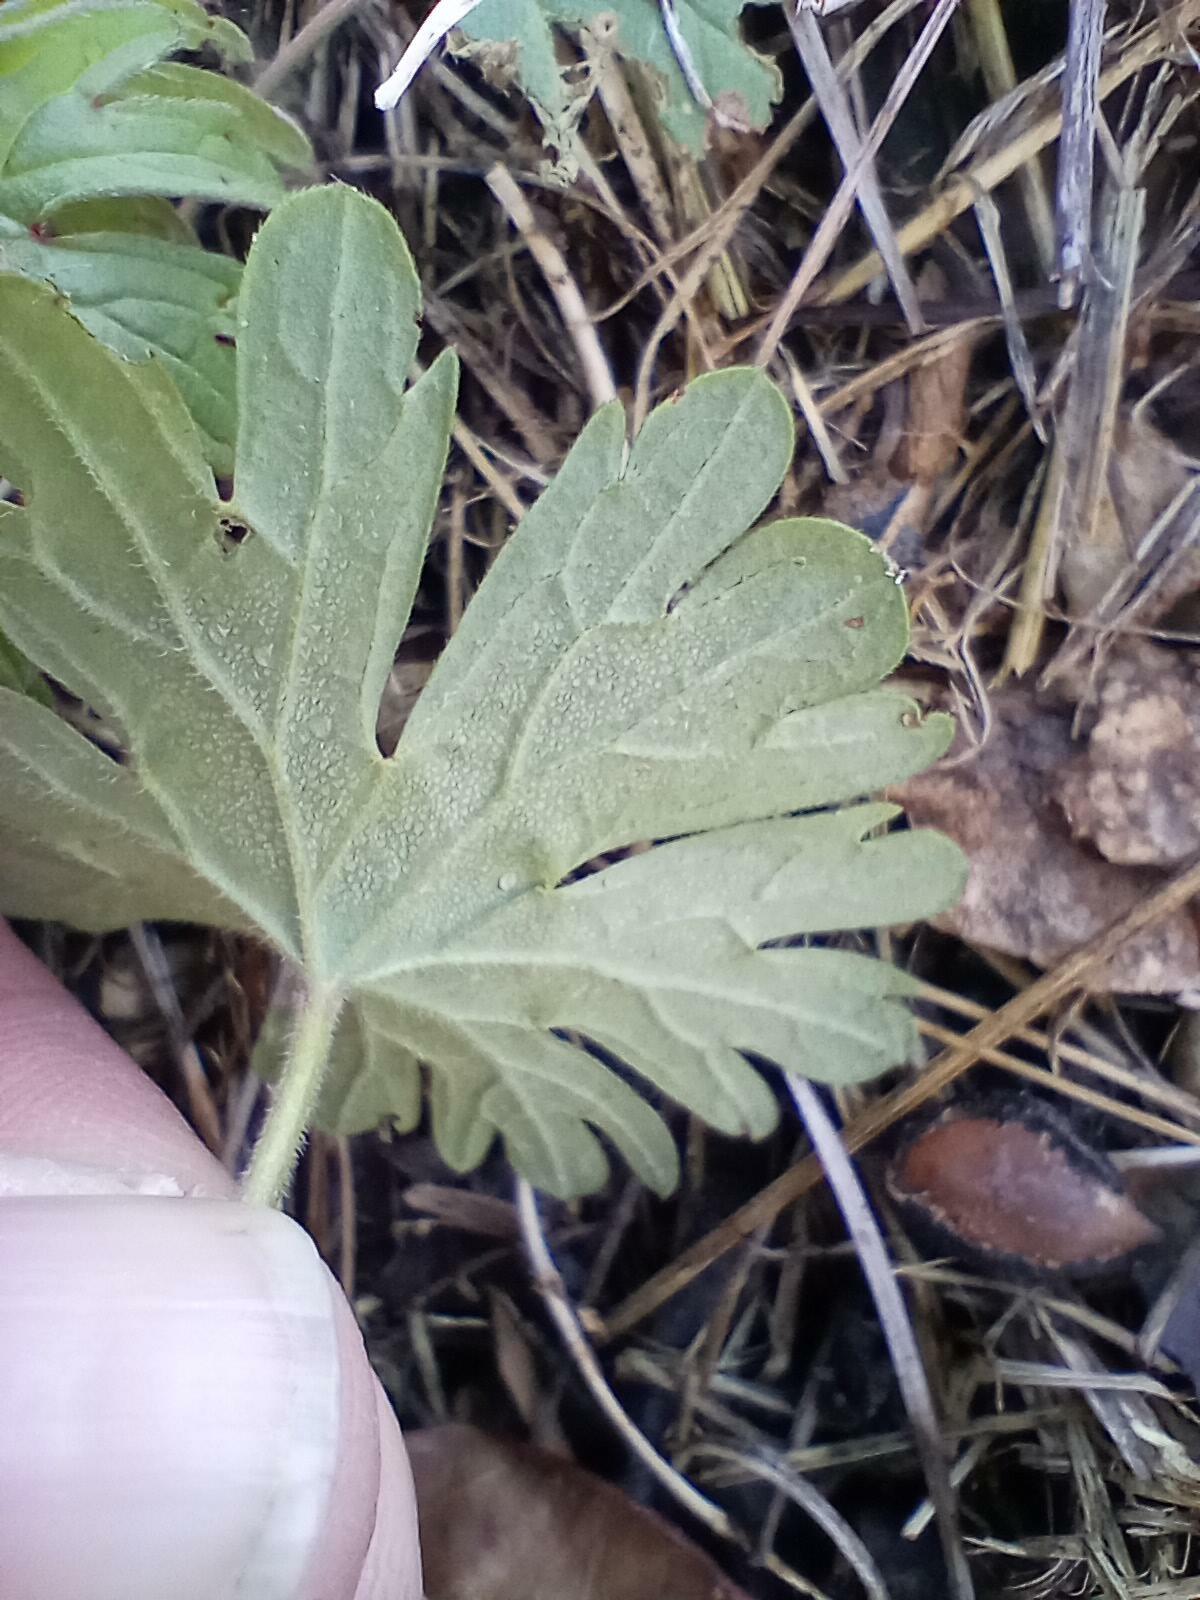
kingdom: Plantae
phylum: Tracheophyta
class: Magnoliopsida
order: Geraniales
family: Geraniaceae
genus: Geranium
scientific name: Geranium
